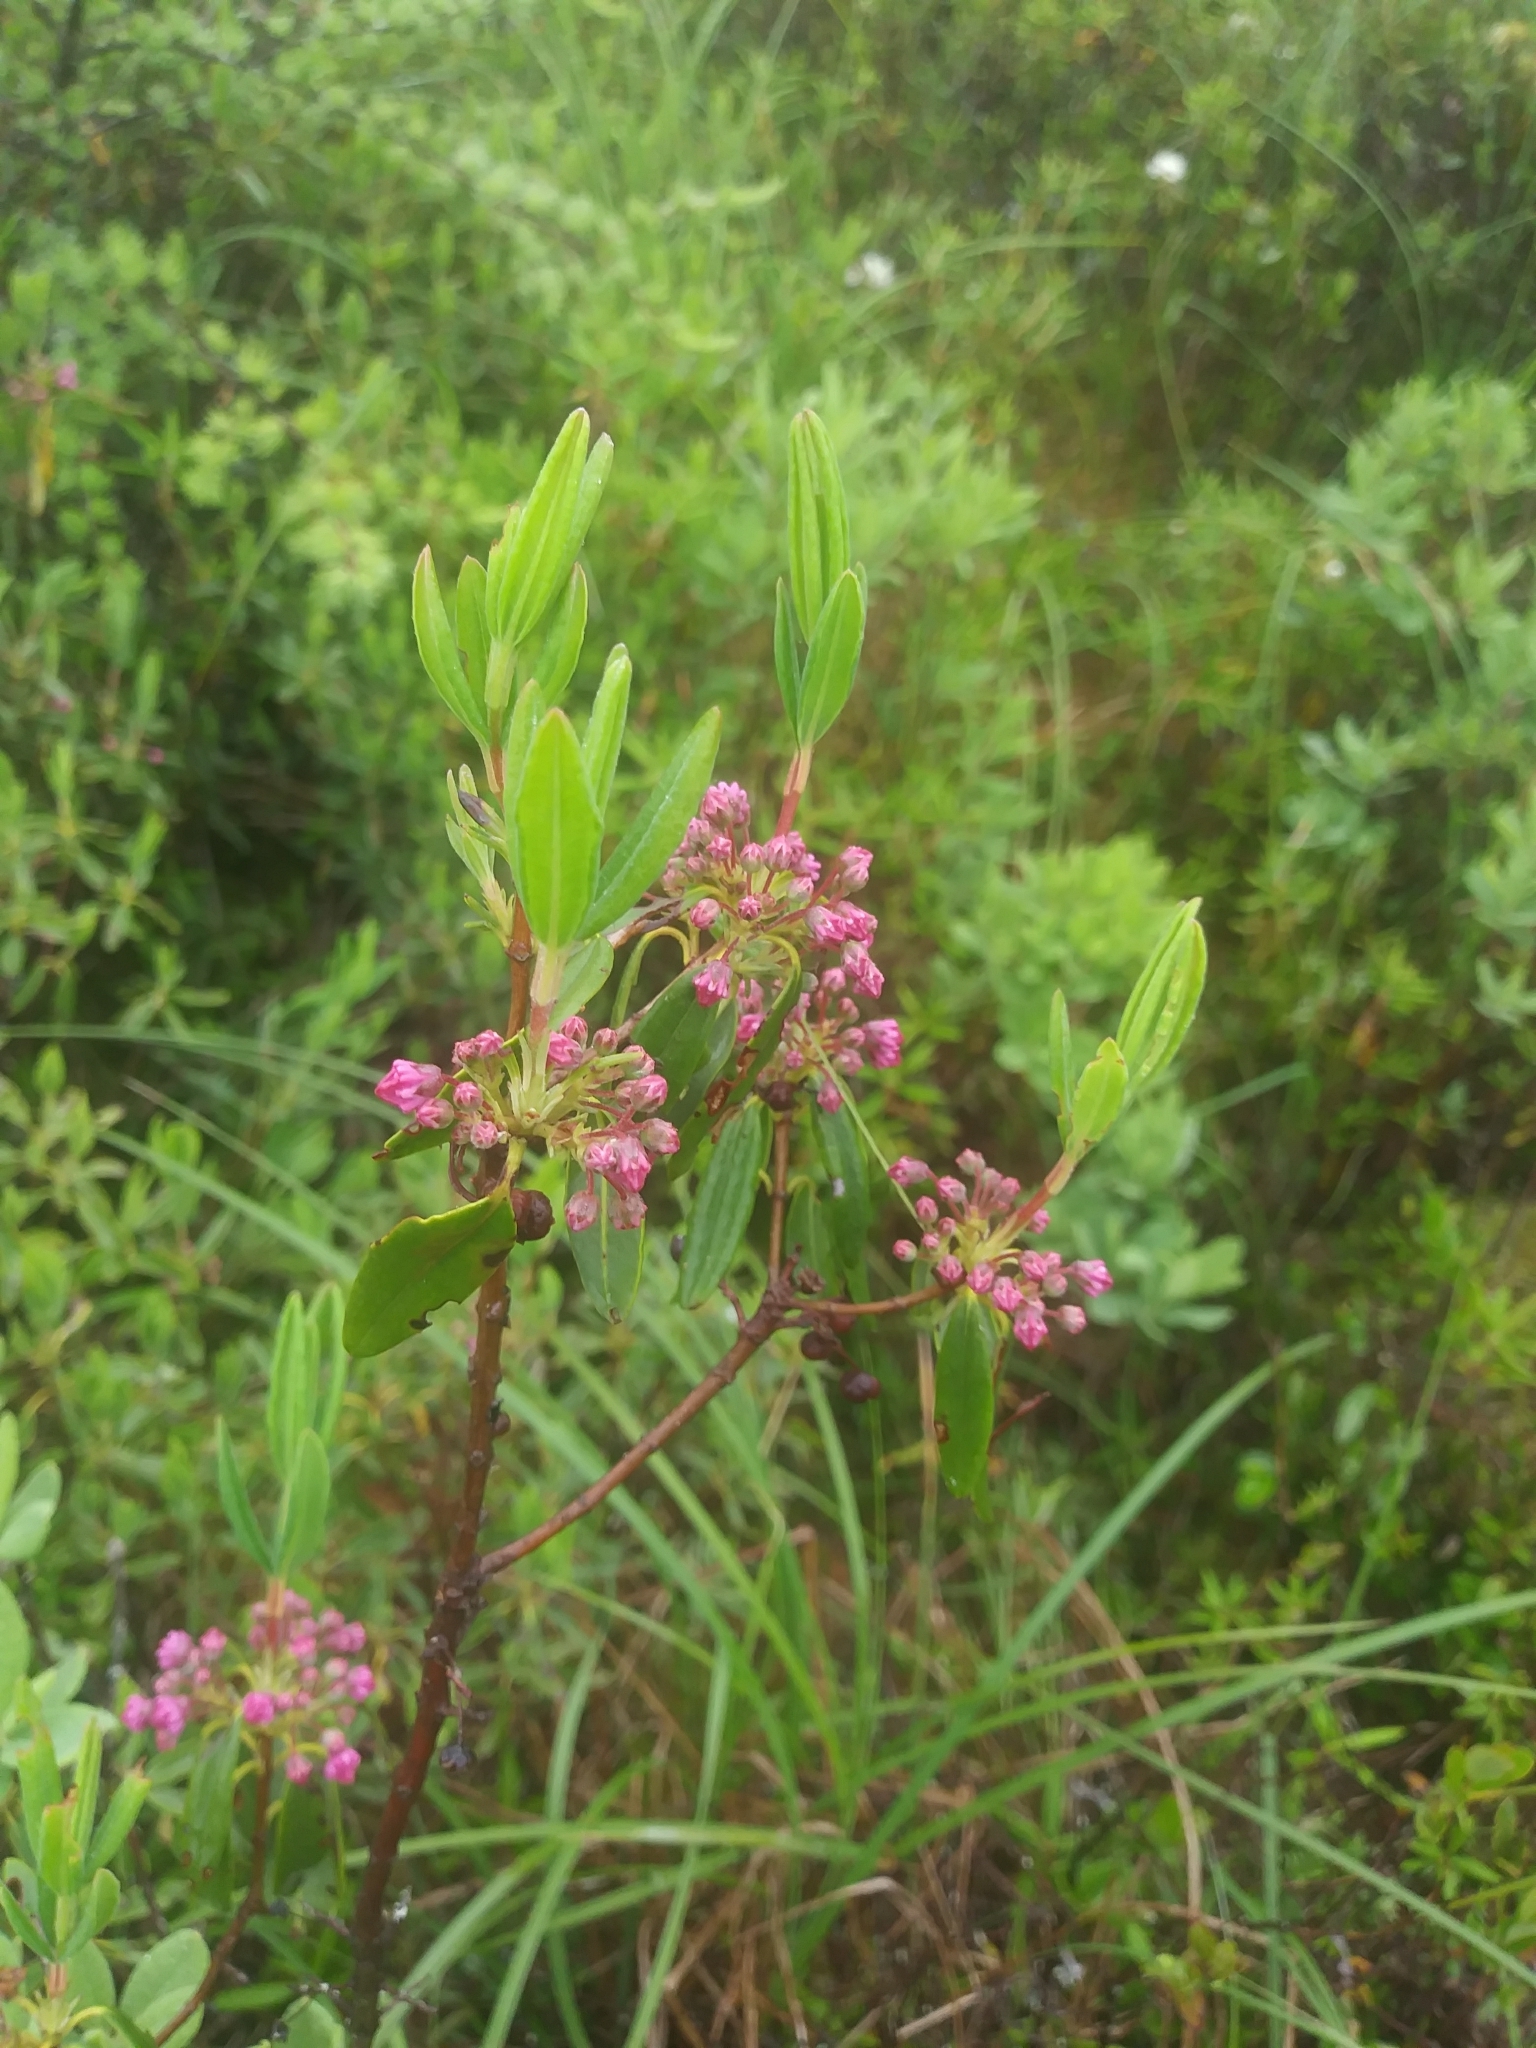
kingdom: Plantae
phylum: Tracheophyta
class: Magnoliopsida
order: Ericales
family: Ericaceae
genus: Kalmia
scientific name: Kalmia angustifolia
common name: Sheep-laurel
